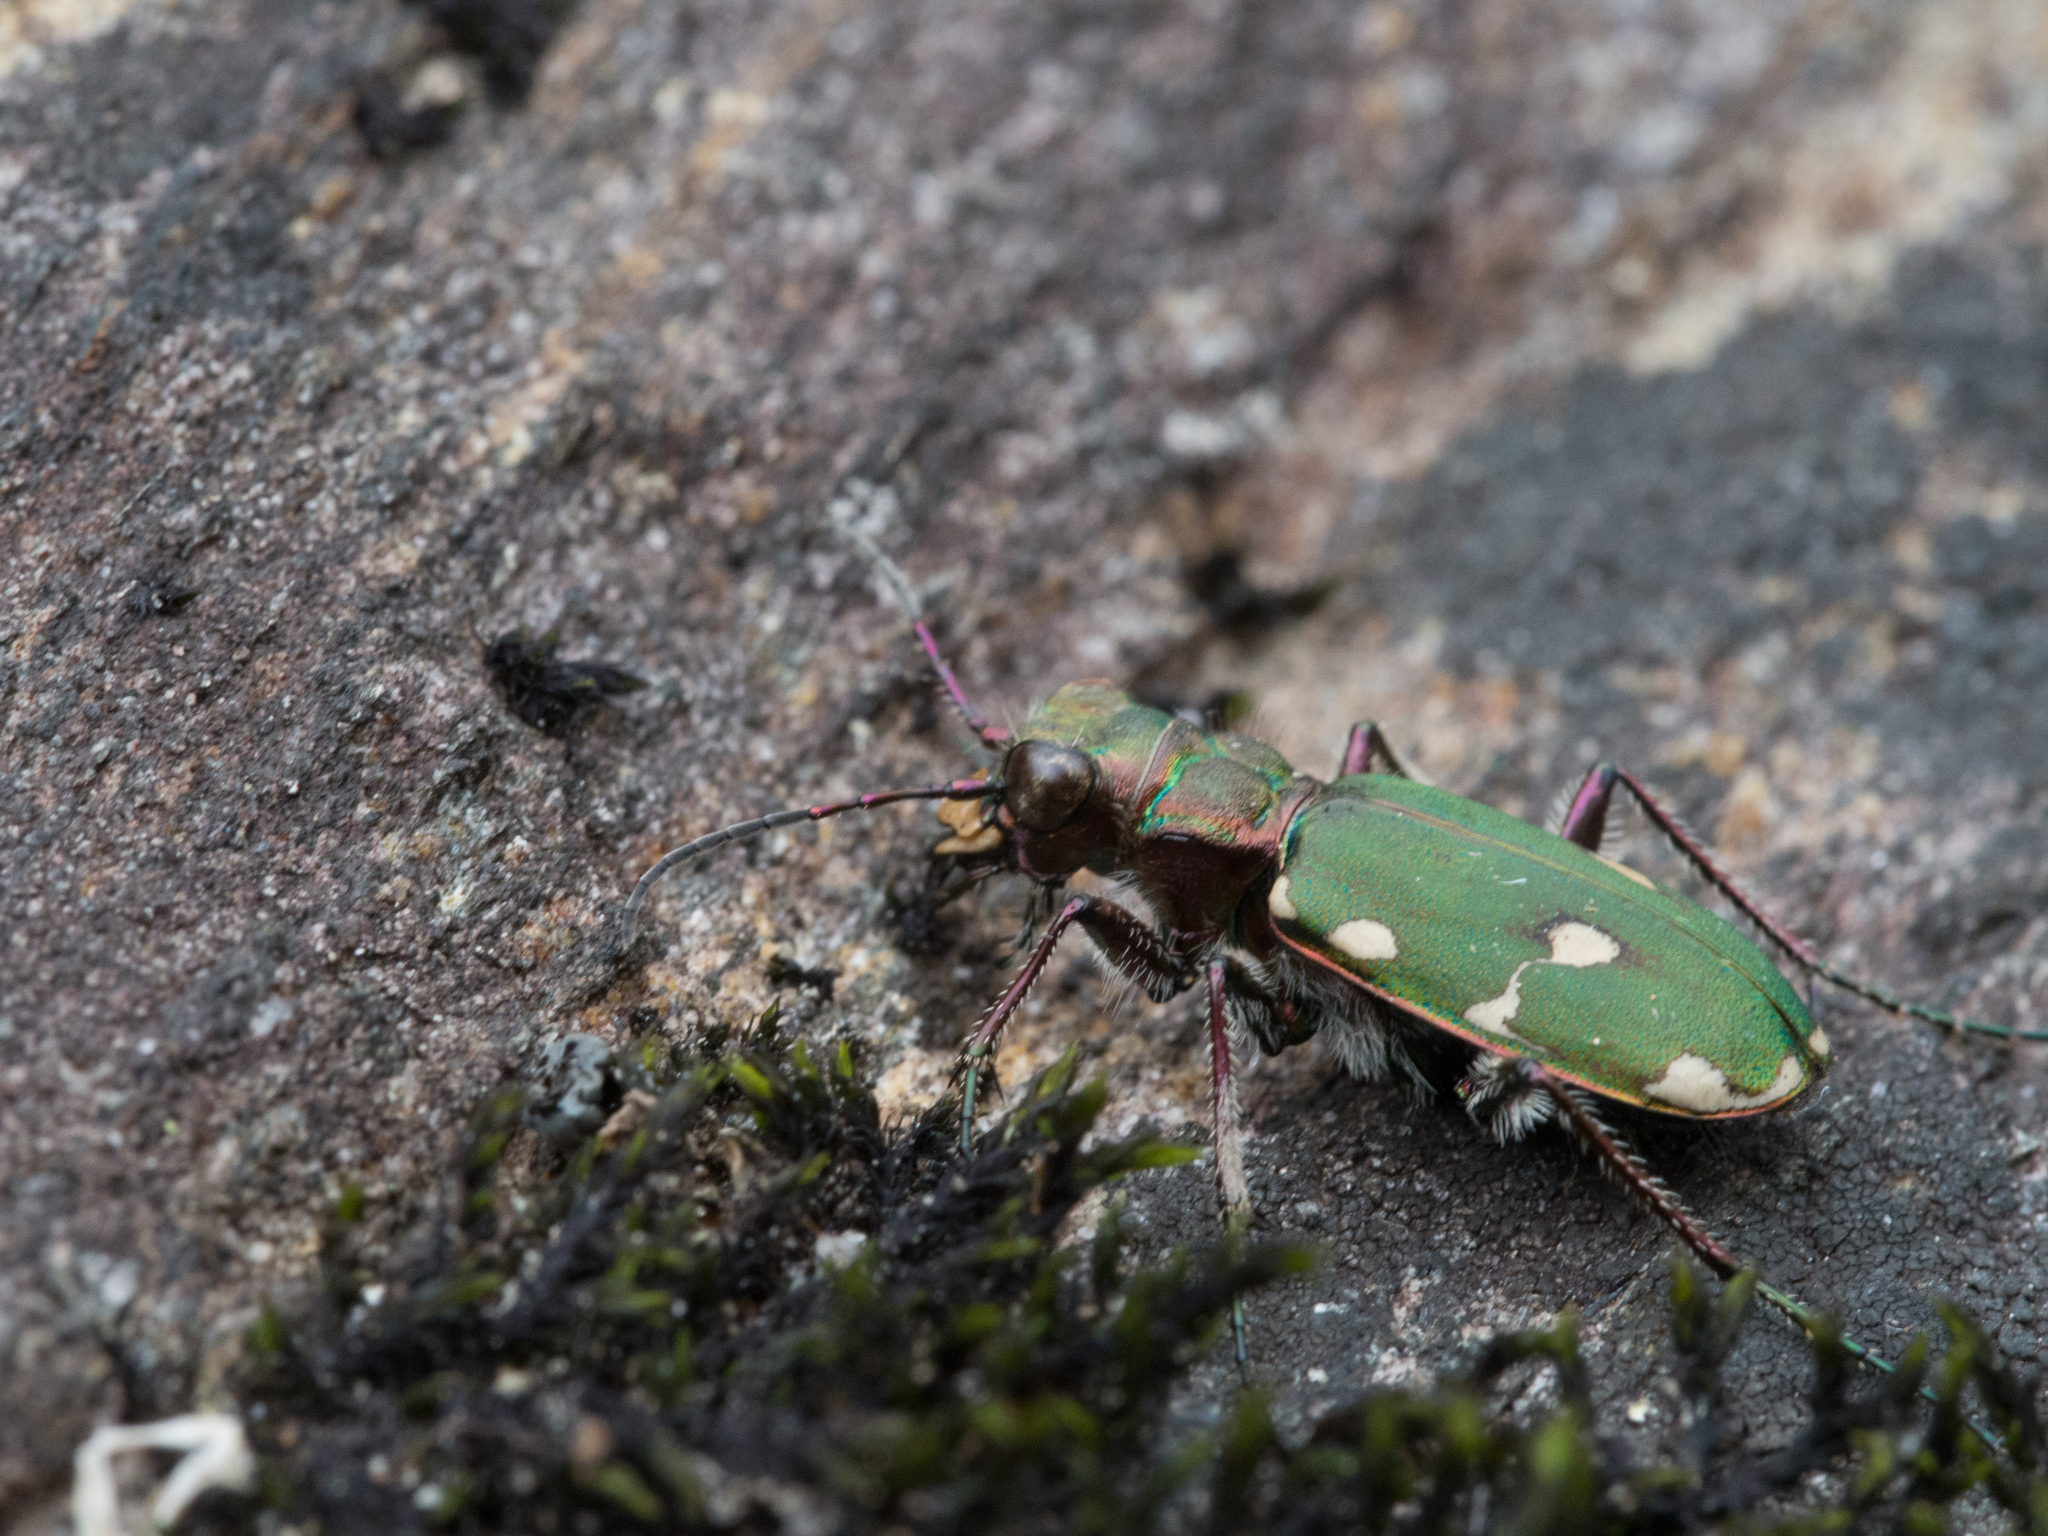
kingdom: Animalia
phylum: Arthropoda
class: Insecta
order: Coleoptera
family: Carabidae
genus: Cicindela
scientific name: Cicindela campestris
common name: Common tiger beetle
